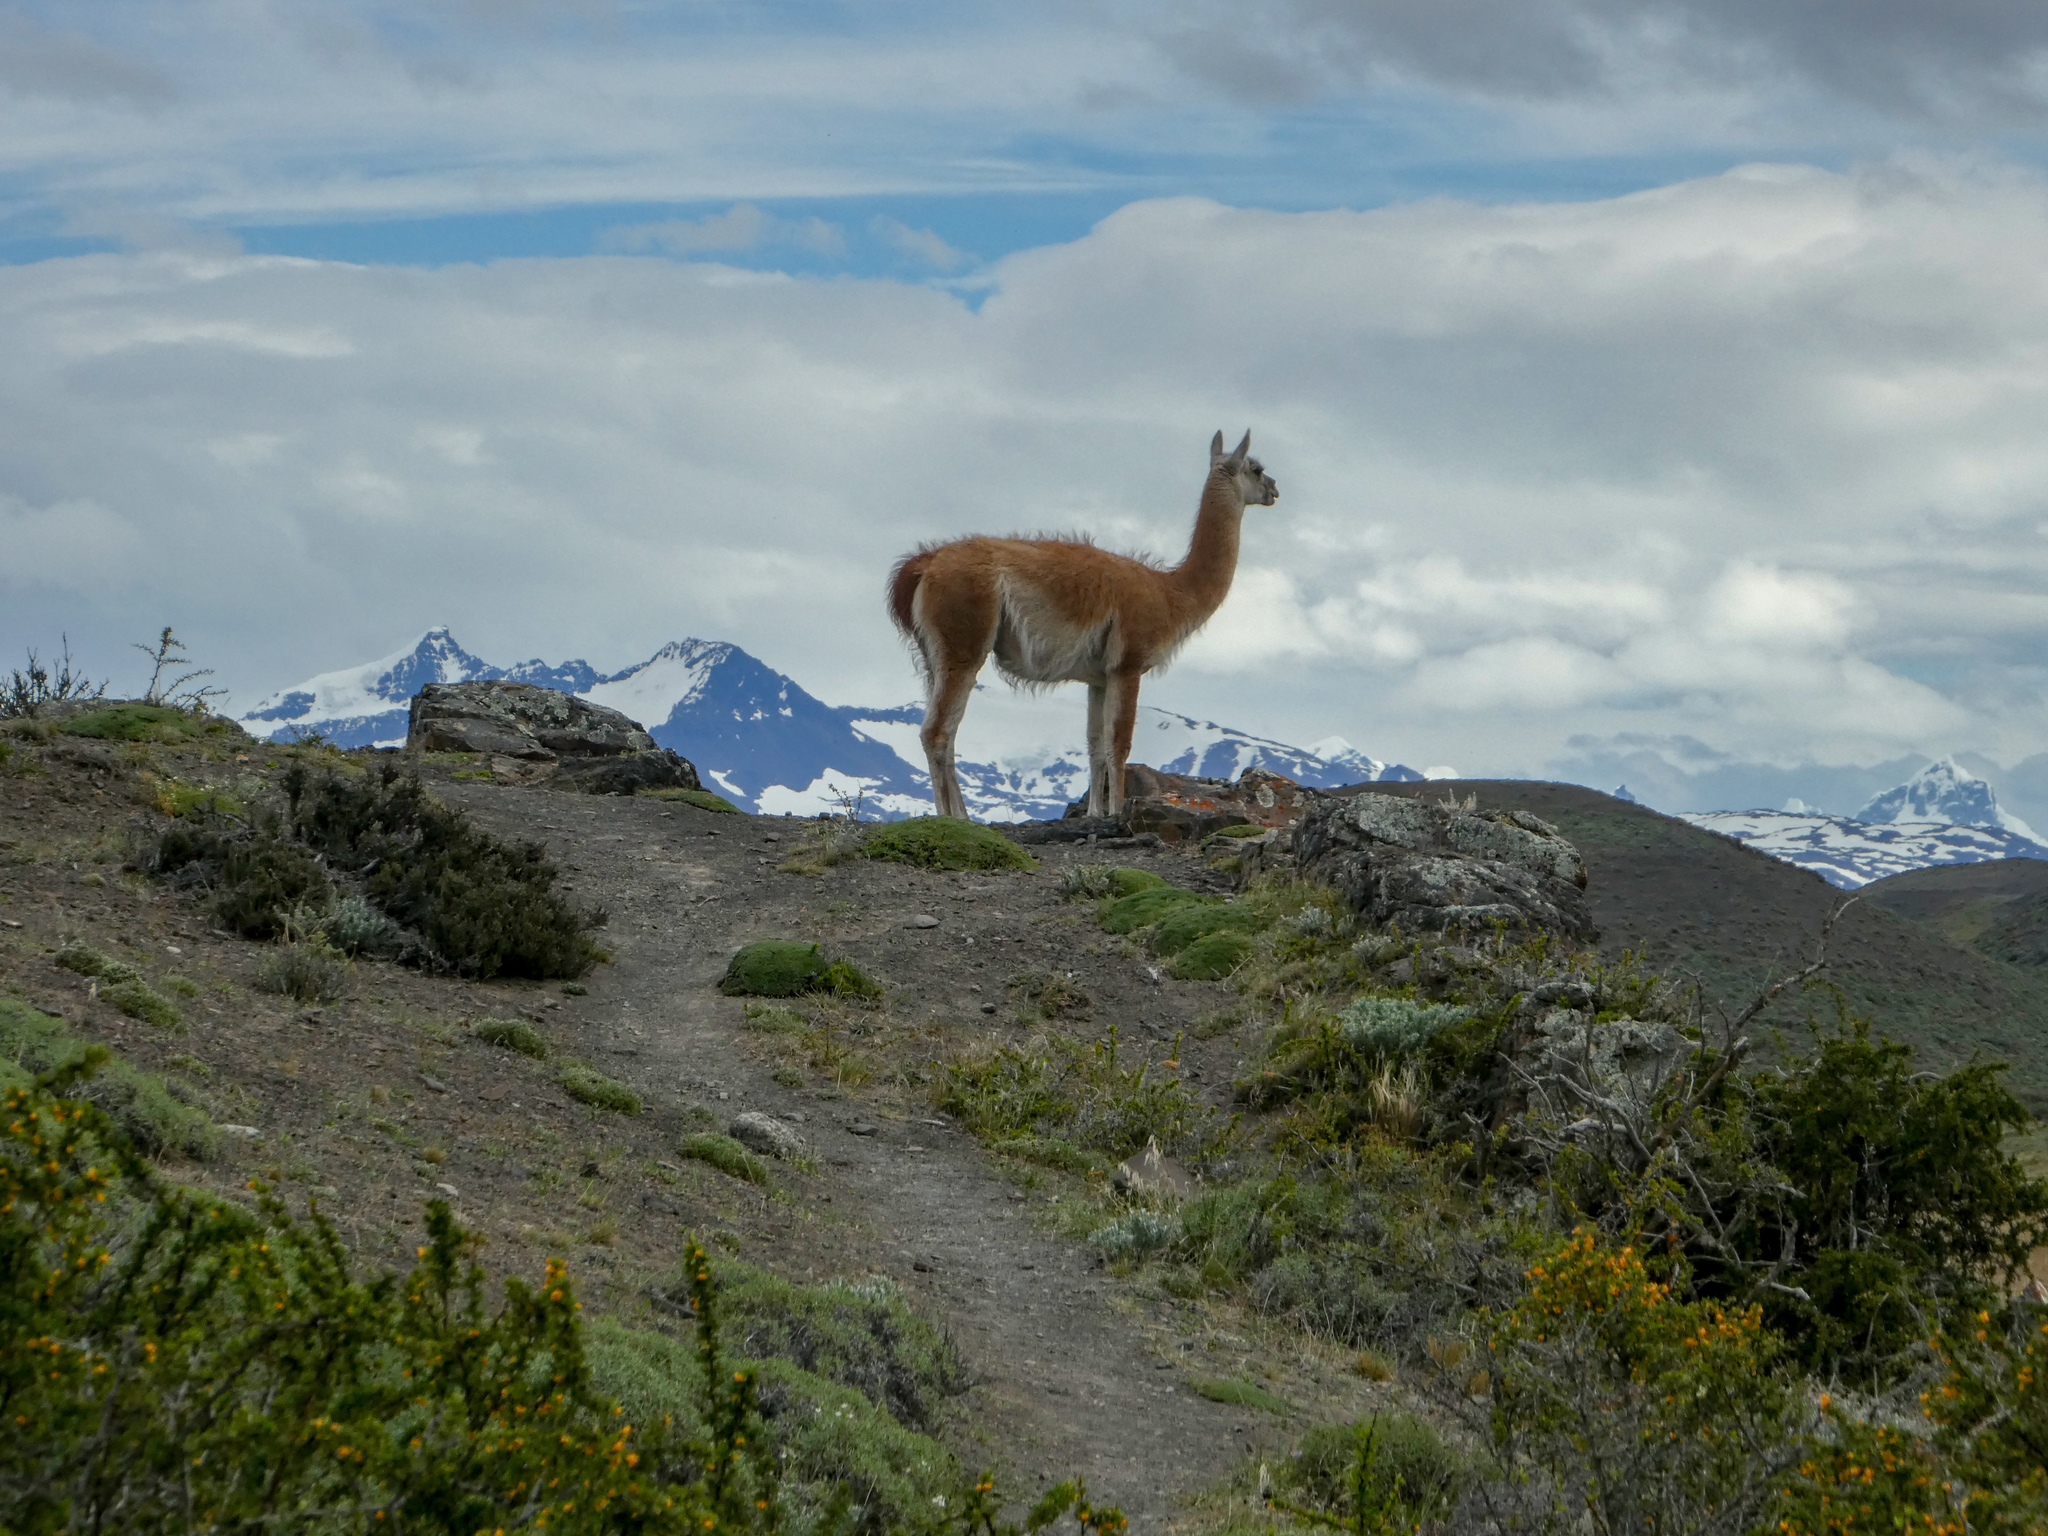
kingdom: Animalia
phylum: Chordata
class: Mammalia
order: Artiodactyla
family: Camelidae
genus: Lama
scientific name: Lama glama
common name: Llama
